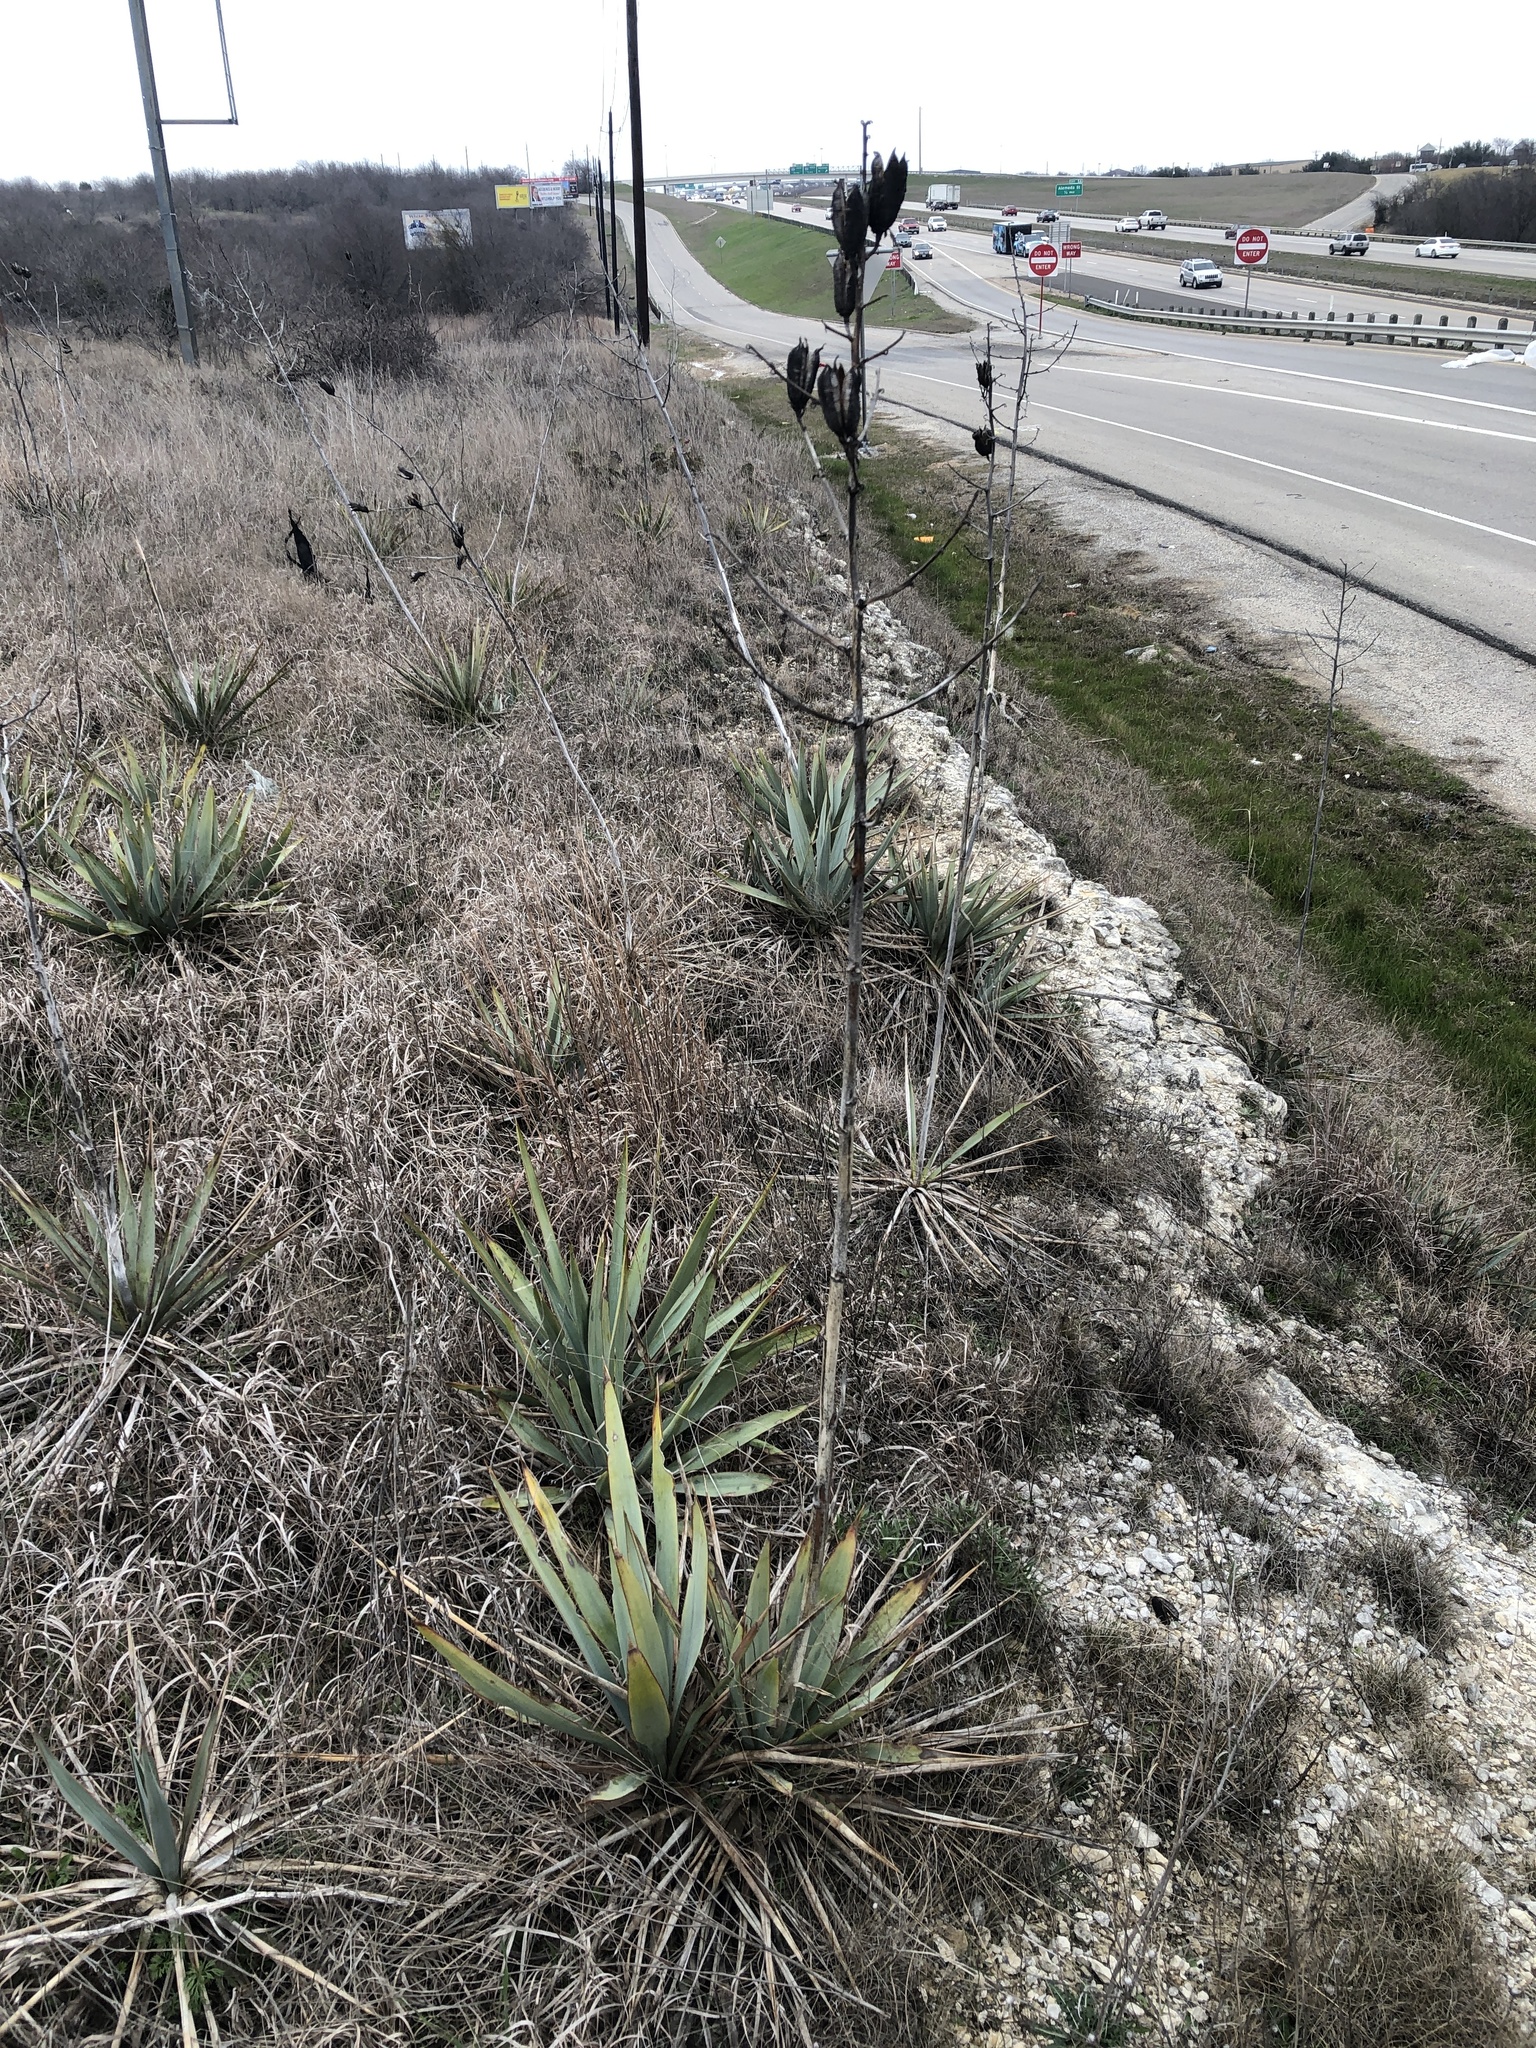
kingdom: Plantae
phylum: Tracheophyta
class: Liliopsida
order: Asparagales
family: Asparagaceae
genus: Yucca
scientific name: Yucca pallida
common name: Pale leaf yucca
